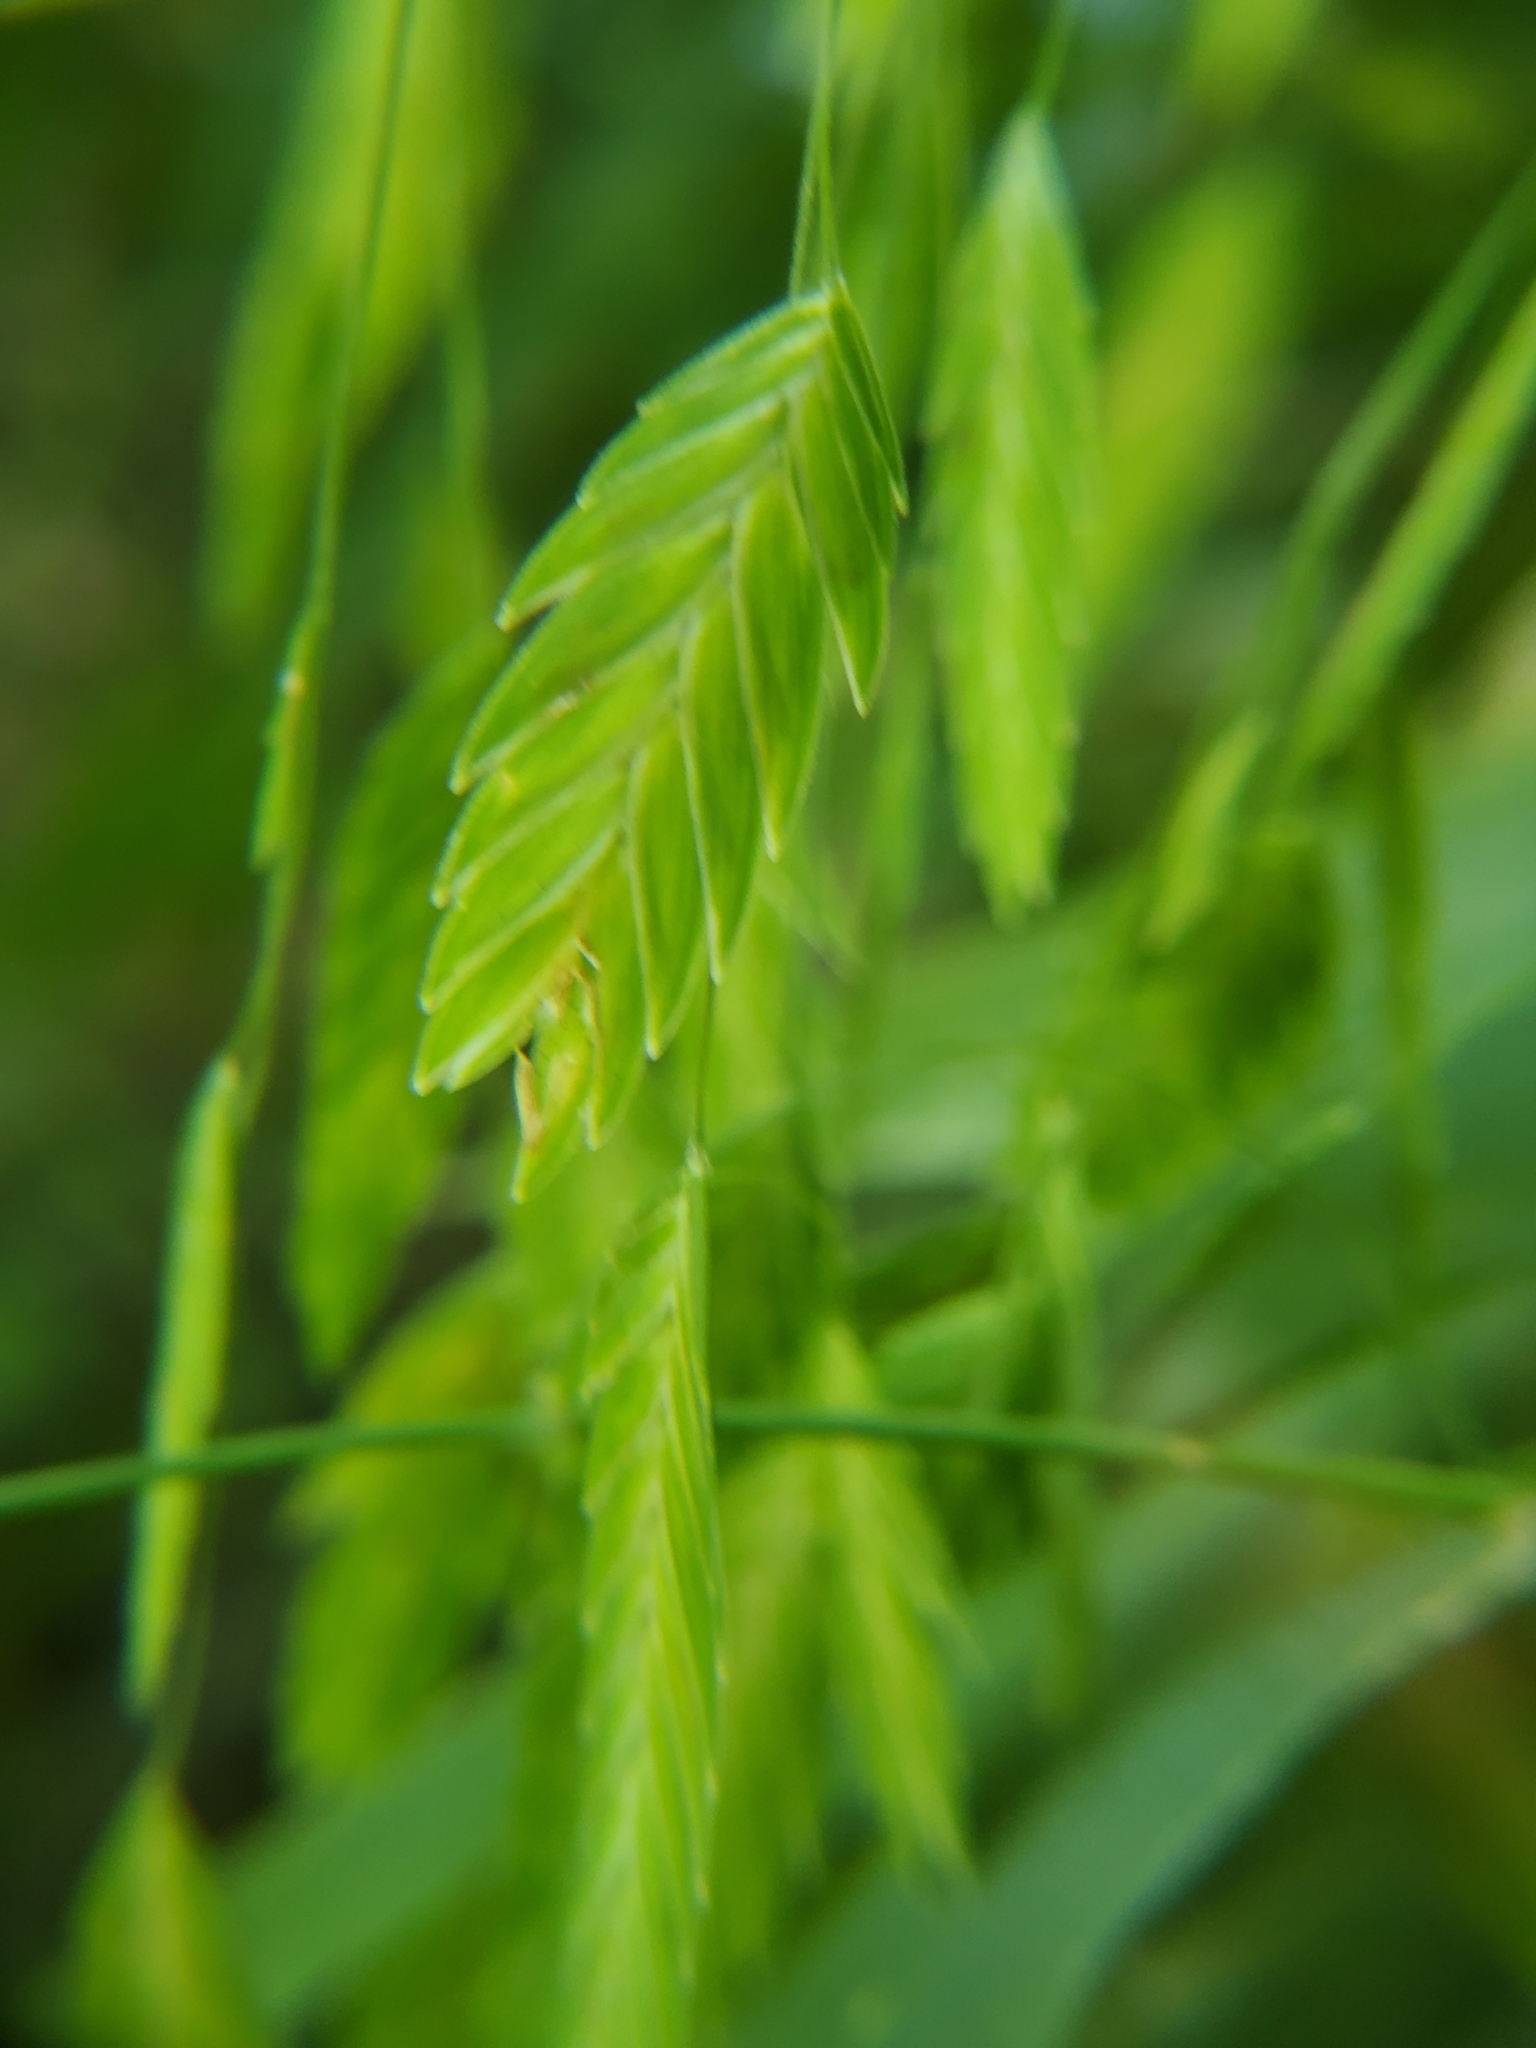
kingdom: Plantae
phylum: Tracheophyta
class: Liliopsida
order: Poales
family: Poaceae
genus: Chasmanthium
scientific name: Chasmanthium latifolium
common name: Broad-leaved chasmanthium
